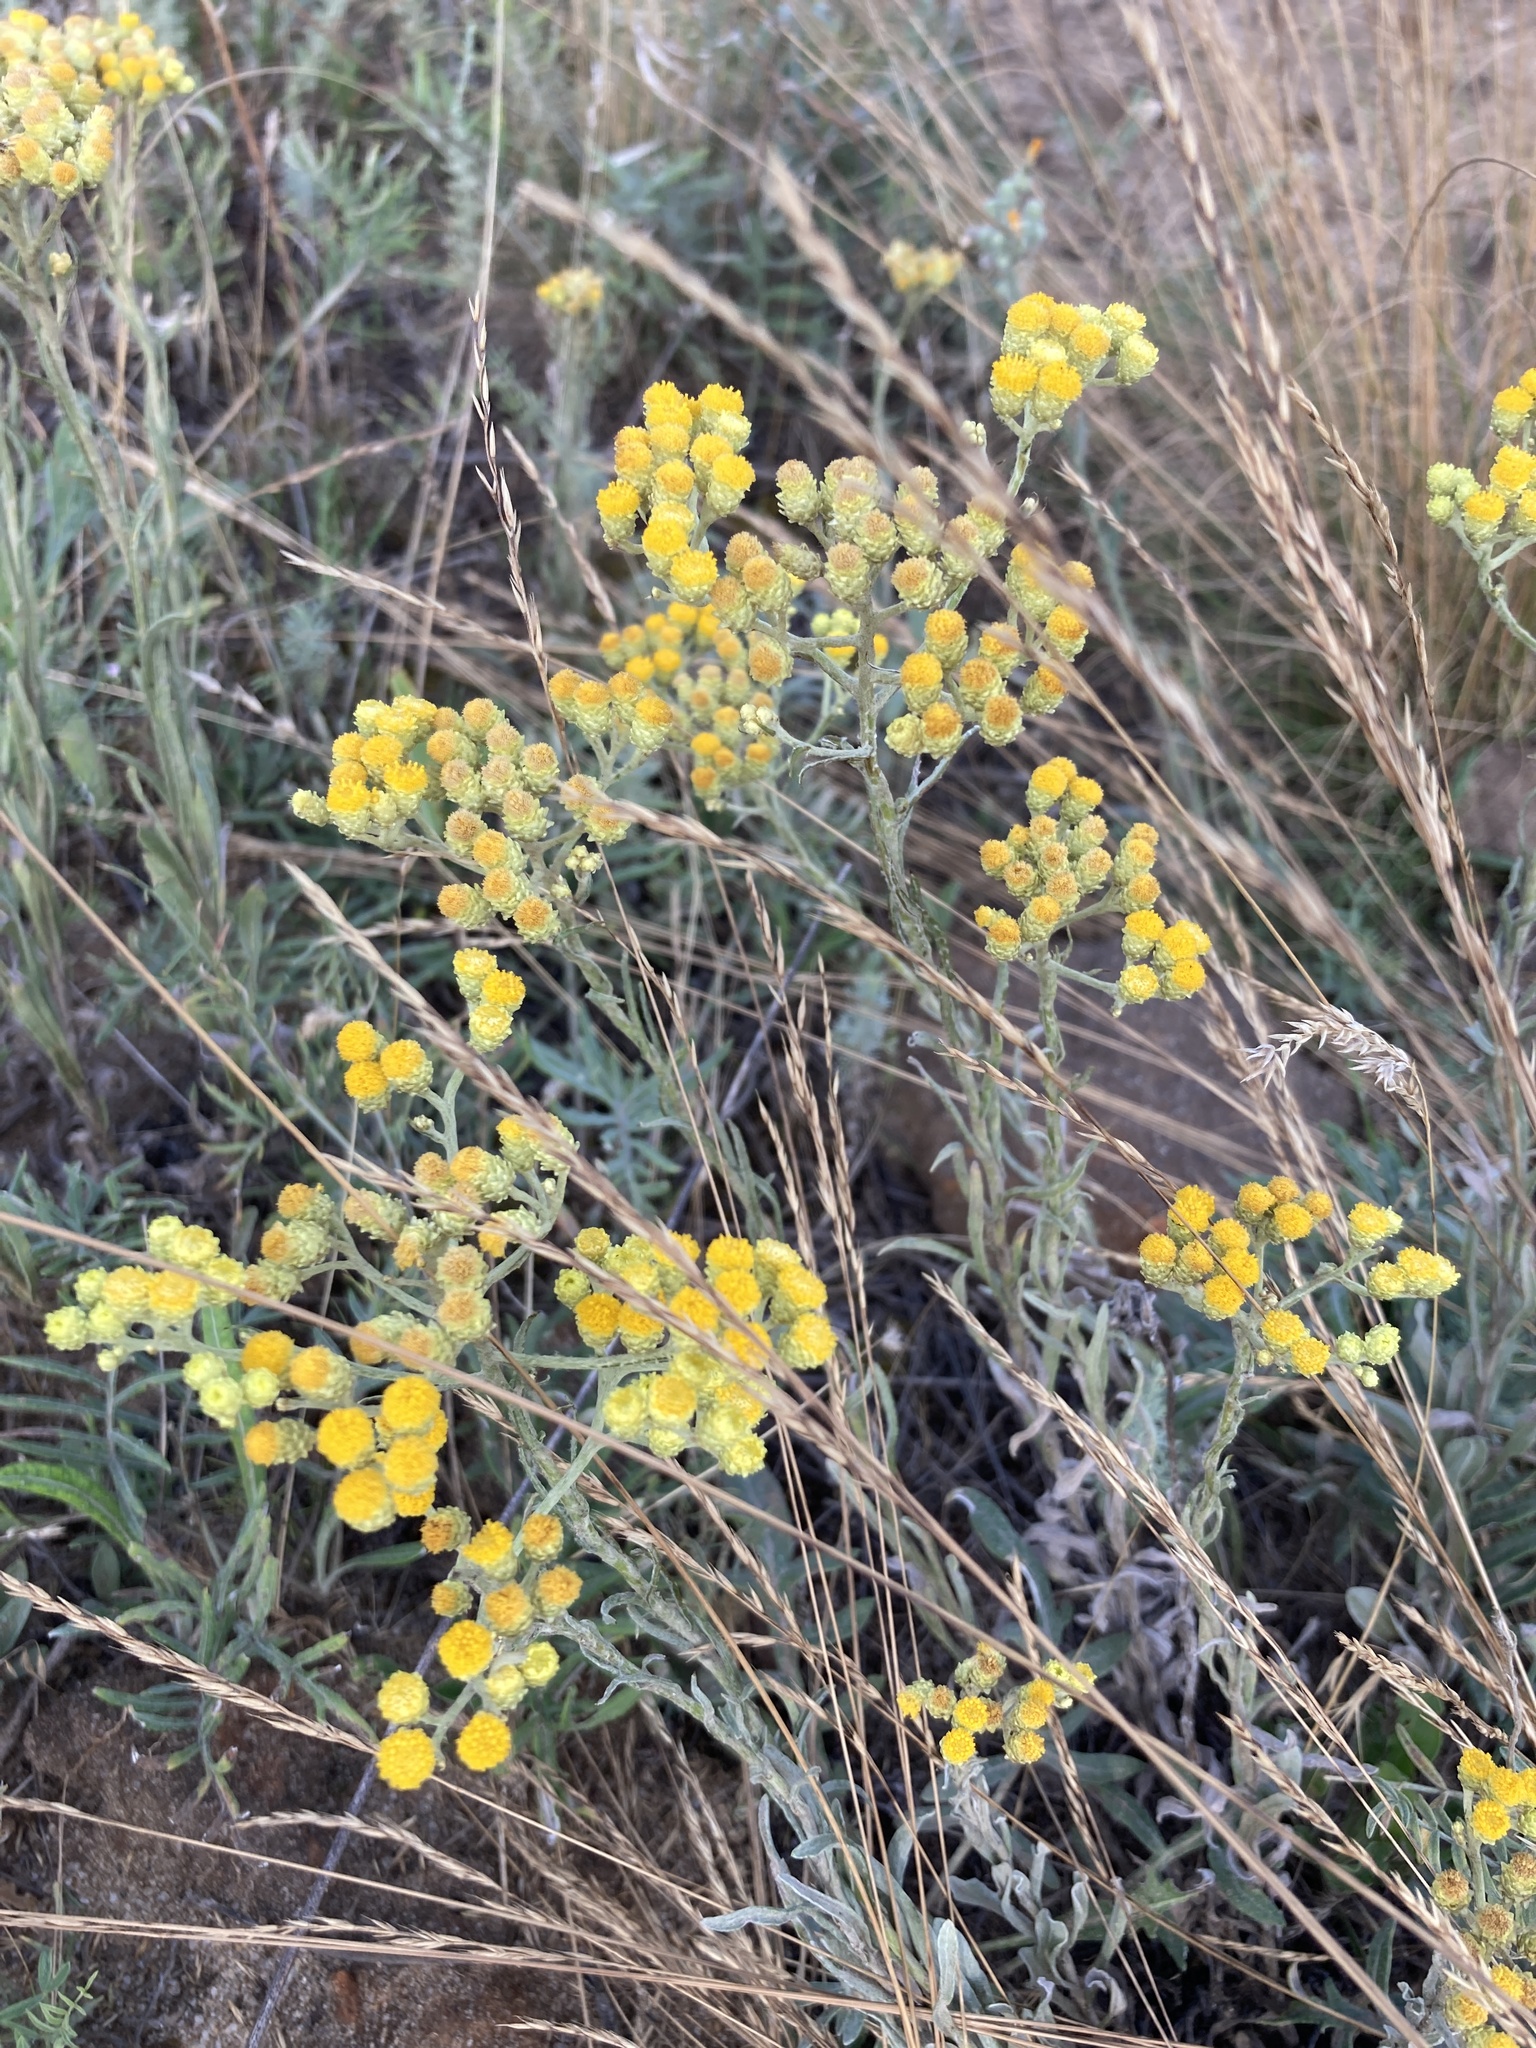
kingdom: Plantae
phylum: Tracheophyta
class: Magnoliopsida
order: Asterales
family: Asteraceae
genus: Helichrysum
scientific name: Helichrysum arenarium
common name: Strawflower
